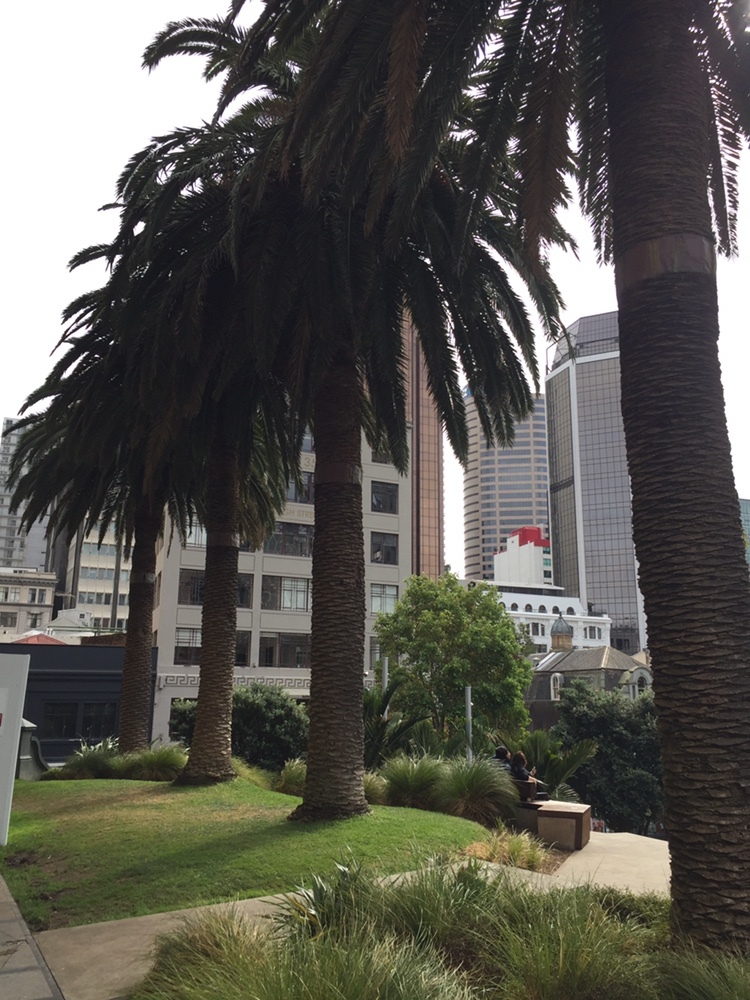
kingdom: Animalia
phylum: Arthropoda
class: Insecta
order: Coleoptera
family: Curculionidae
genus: Coccotrypes
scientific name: Coccotrypes dactyliperda
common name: Bark beetle
